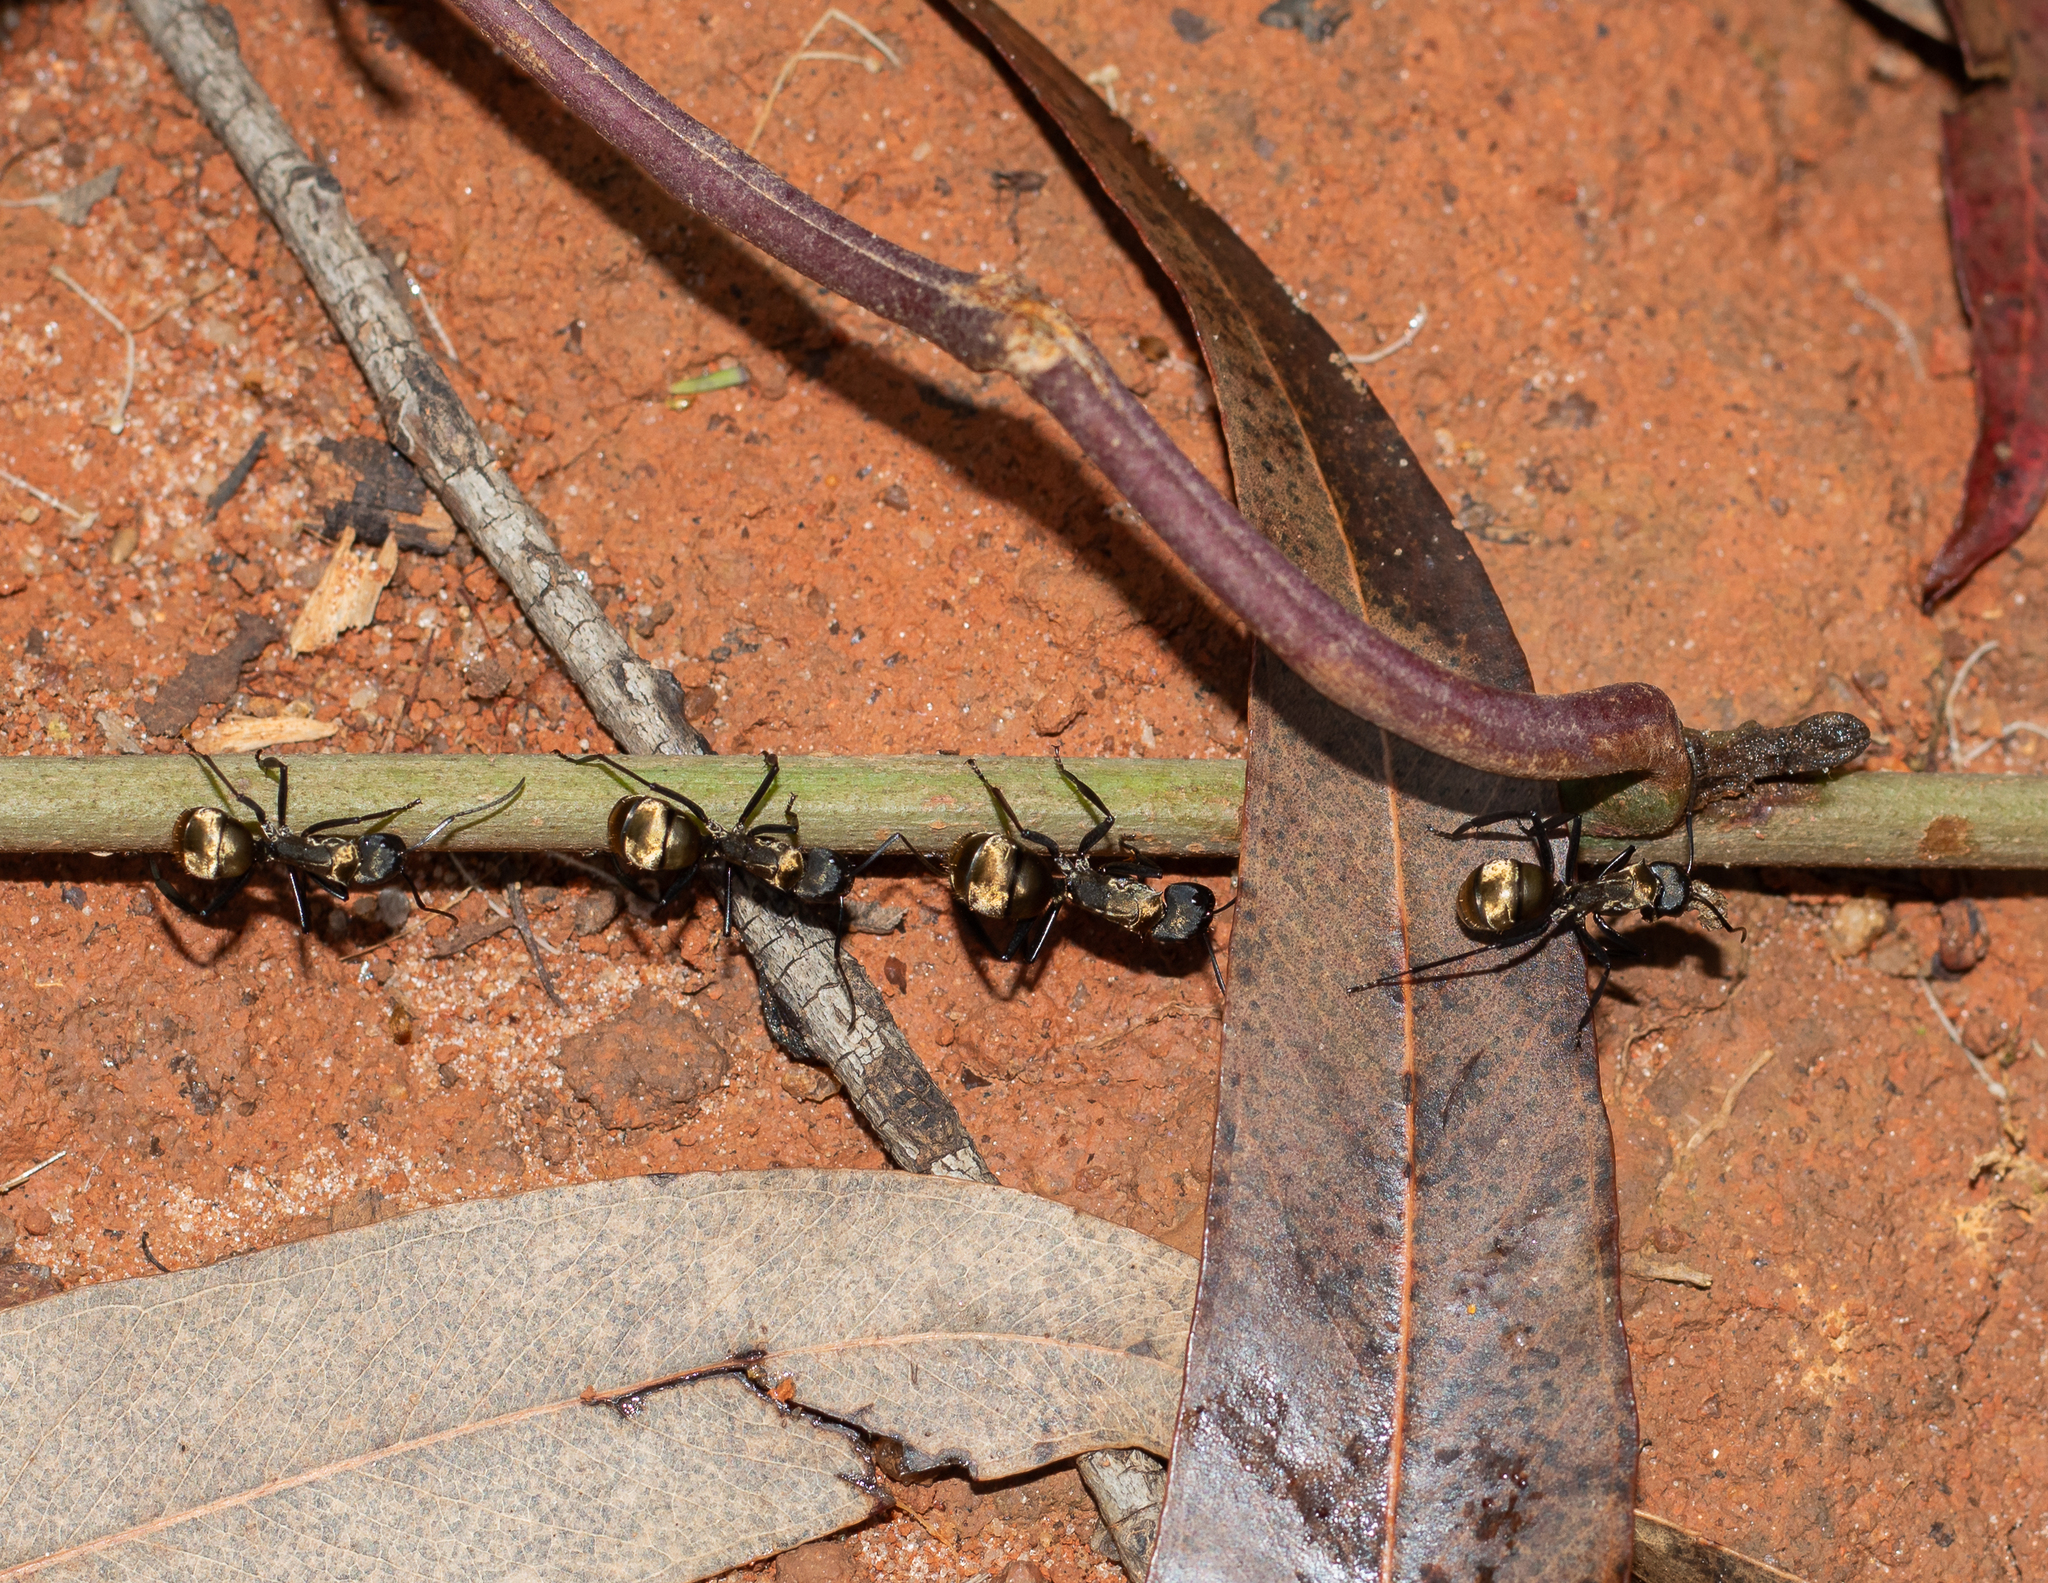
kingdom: Animalia
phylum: Arthropoda
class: Insecta
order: Hymenoptera
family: Formicidae
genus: Camponotus
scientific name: Camponotus sericeiventris
